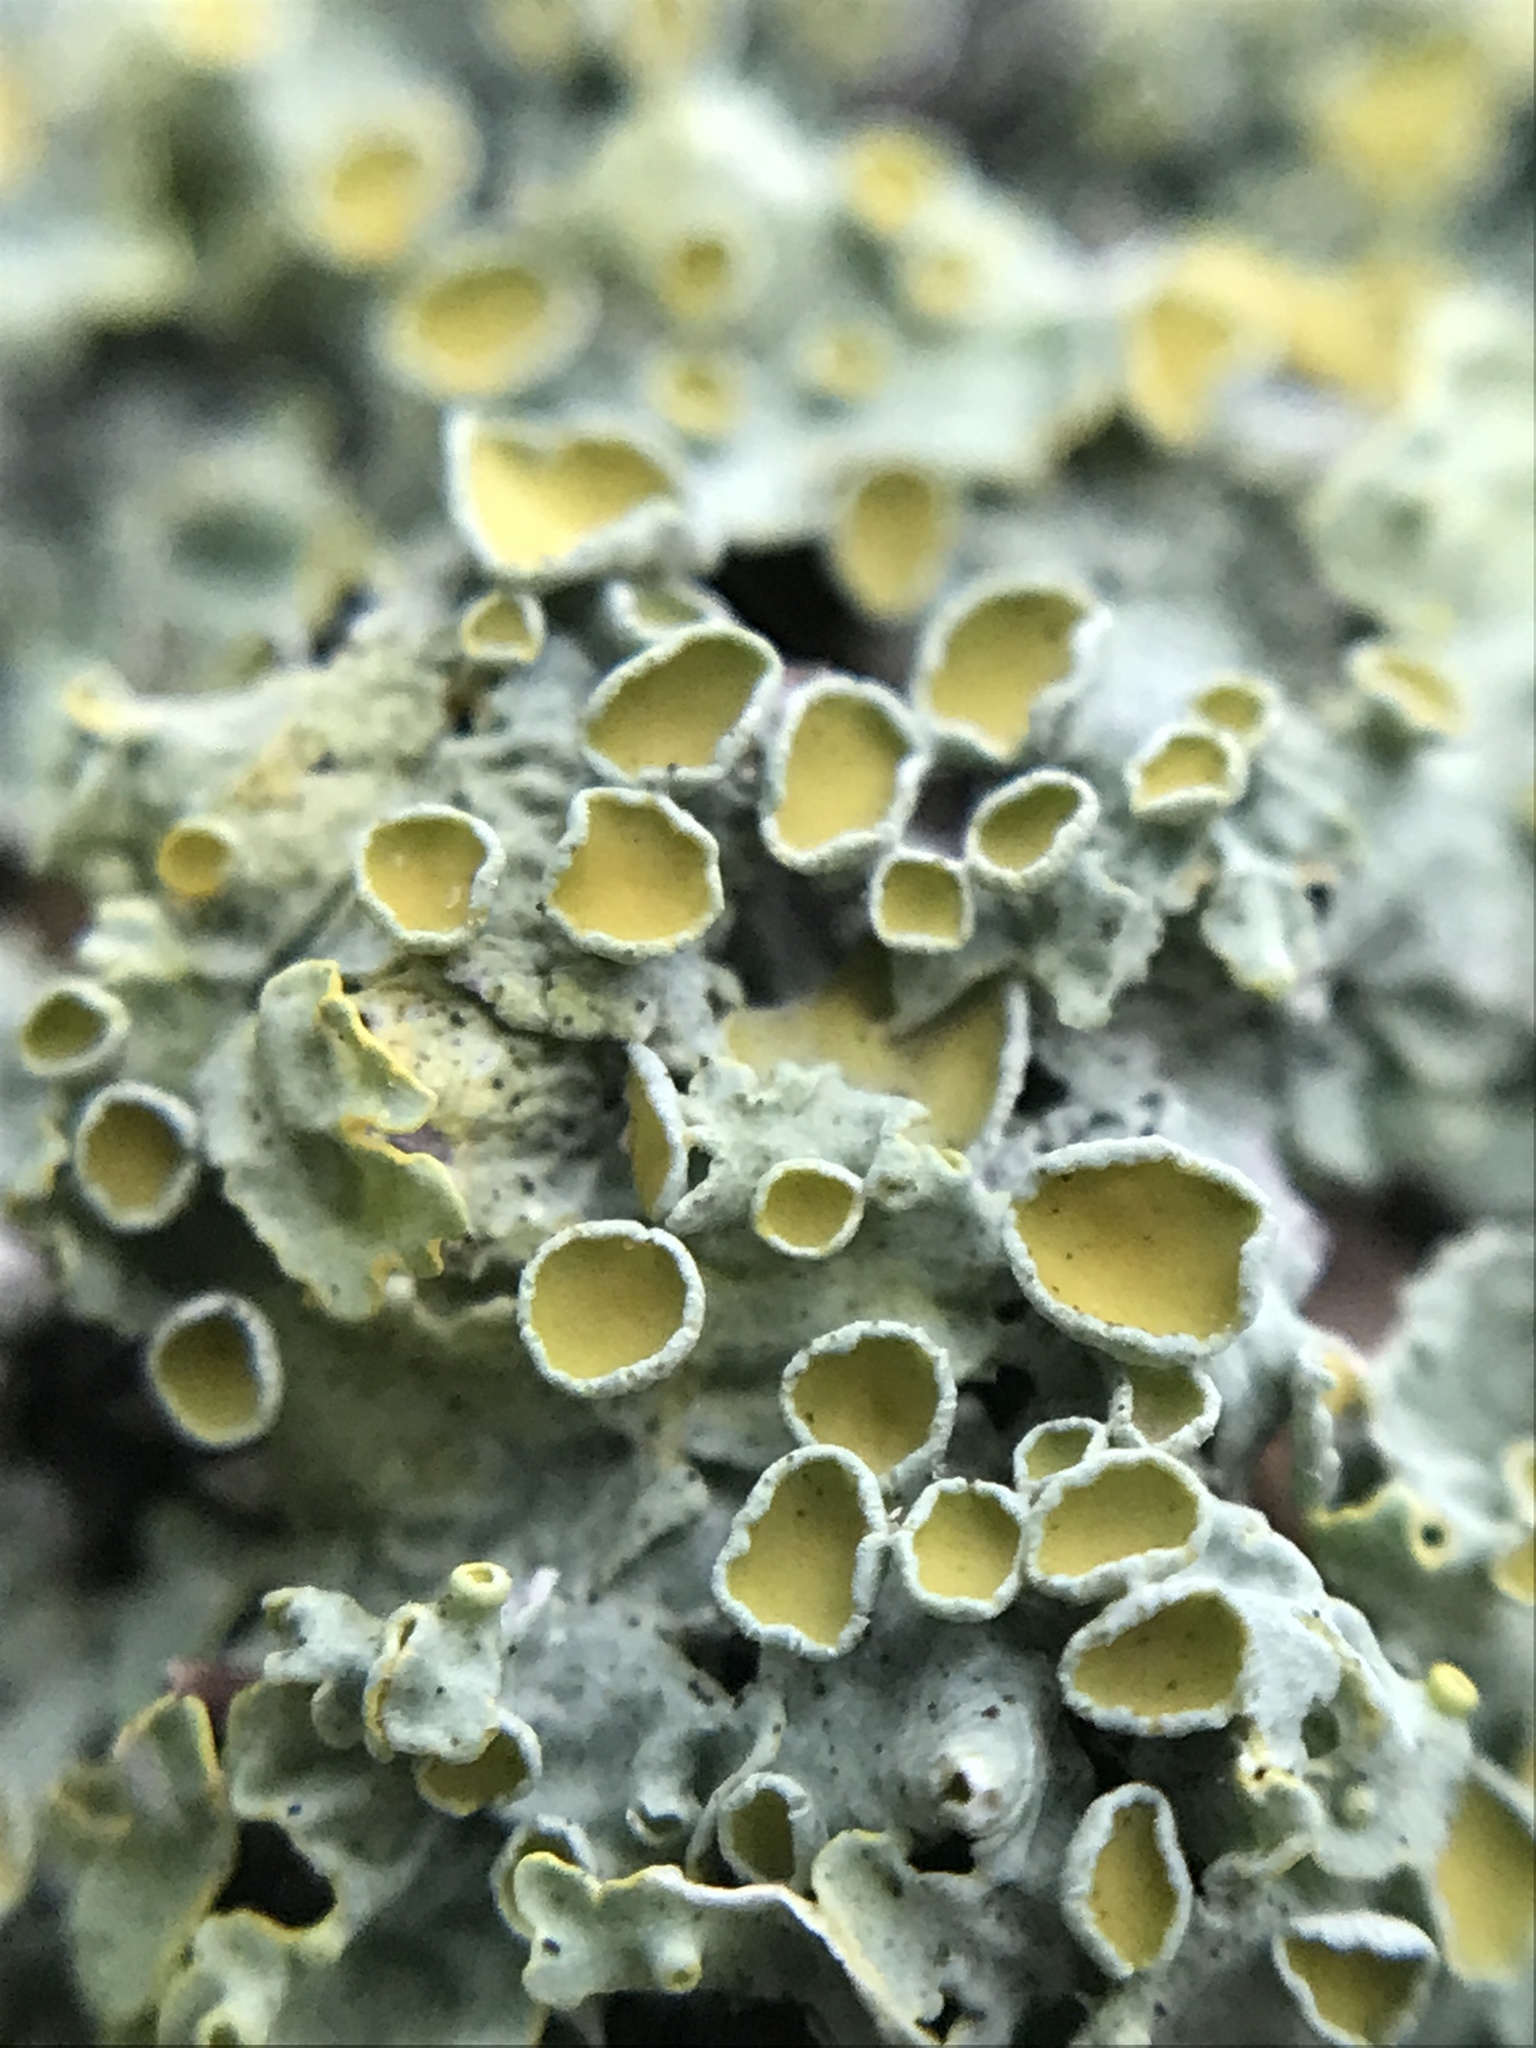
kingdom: Fungi
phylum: Ascomycota
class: Lecanoromycetes
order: Teloschistales
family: Teloschistaceae
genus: Xanthoria
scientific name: Xanthoria parietina
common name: Common orange lichen
